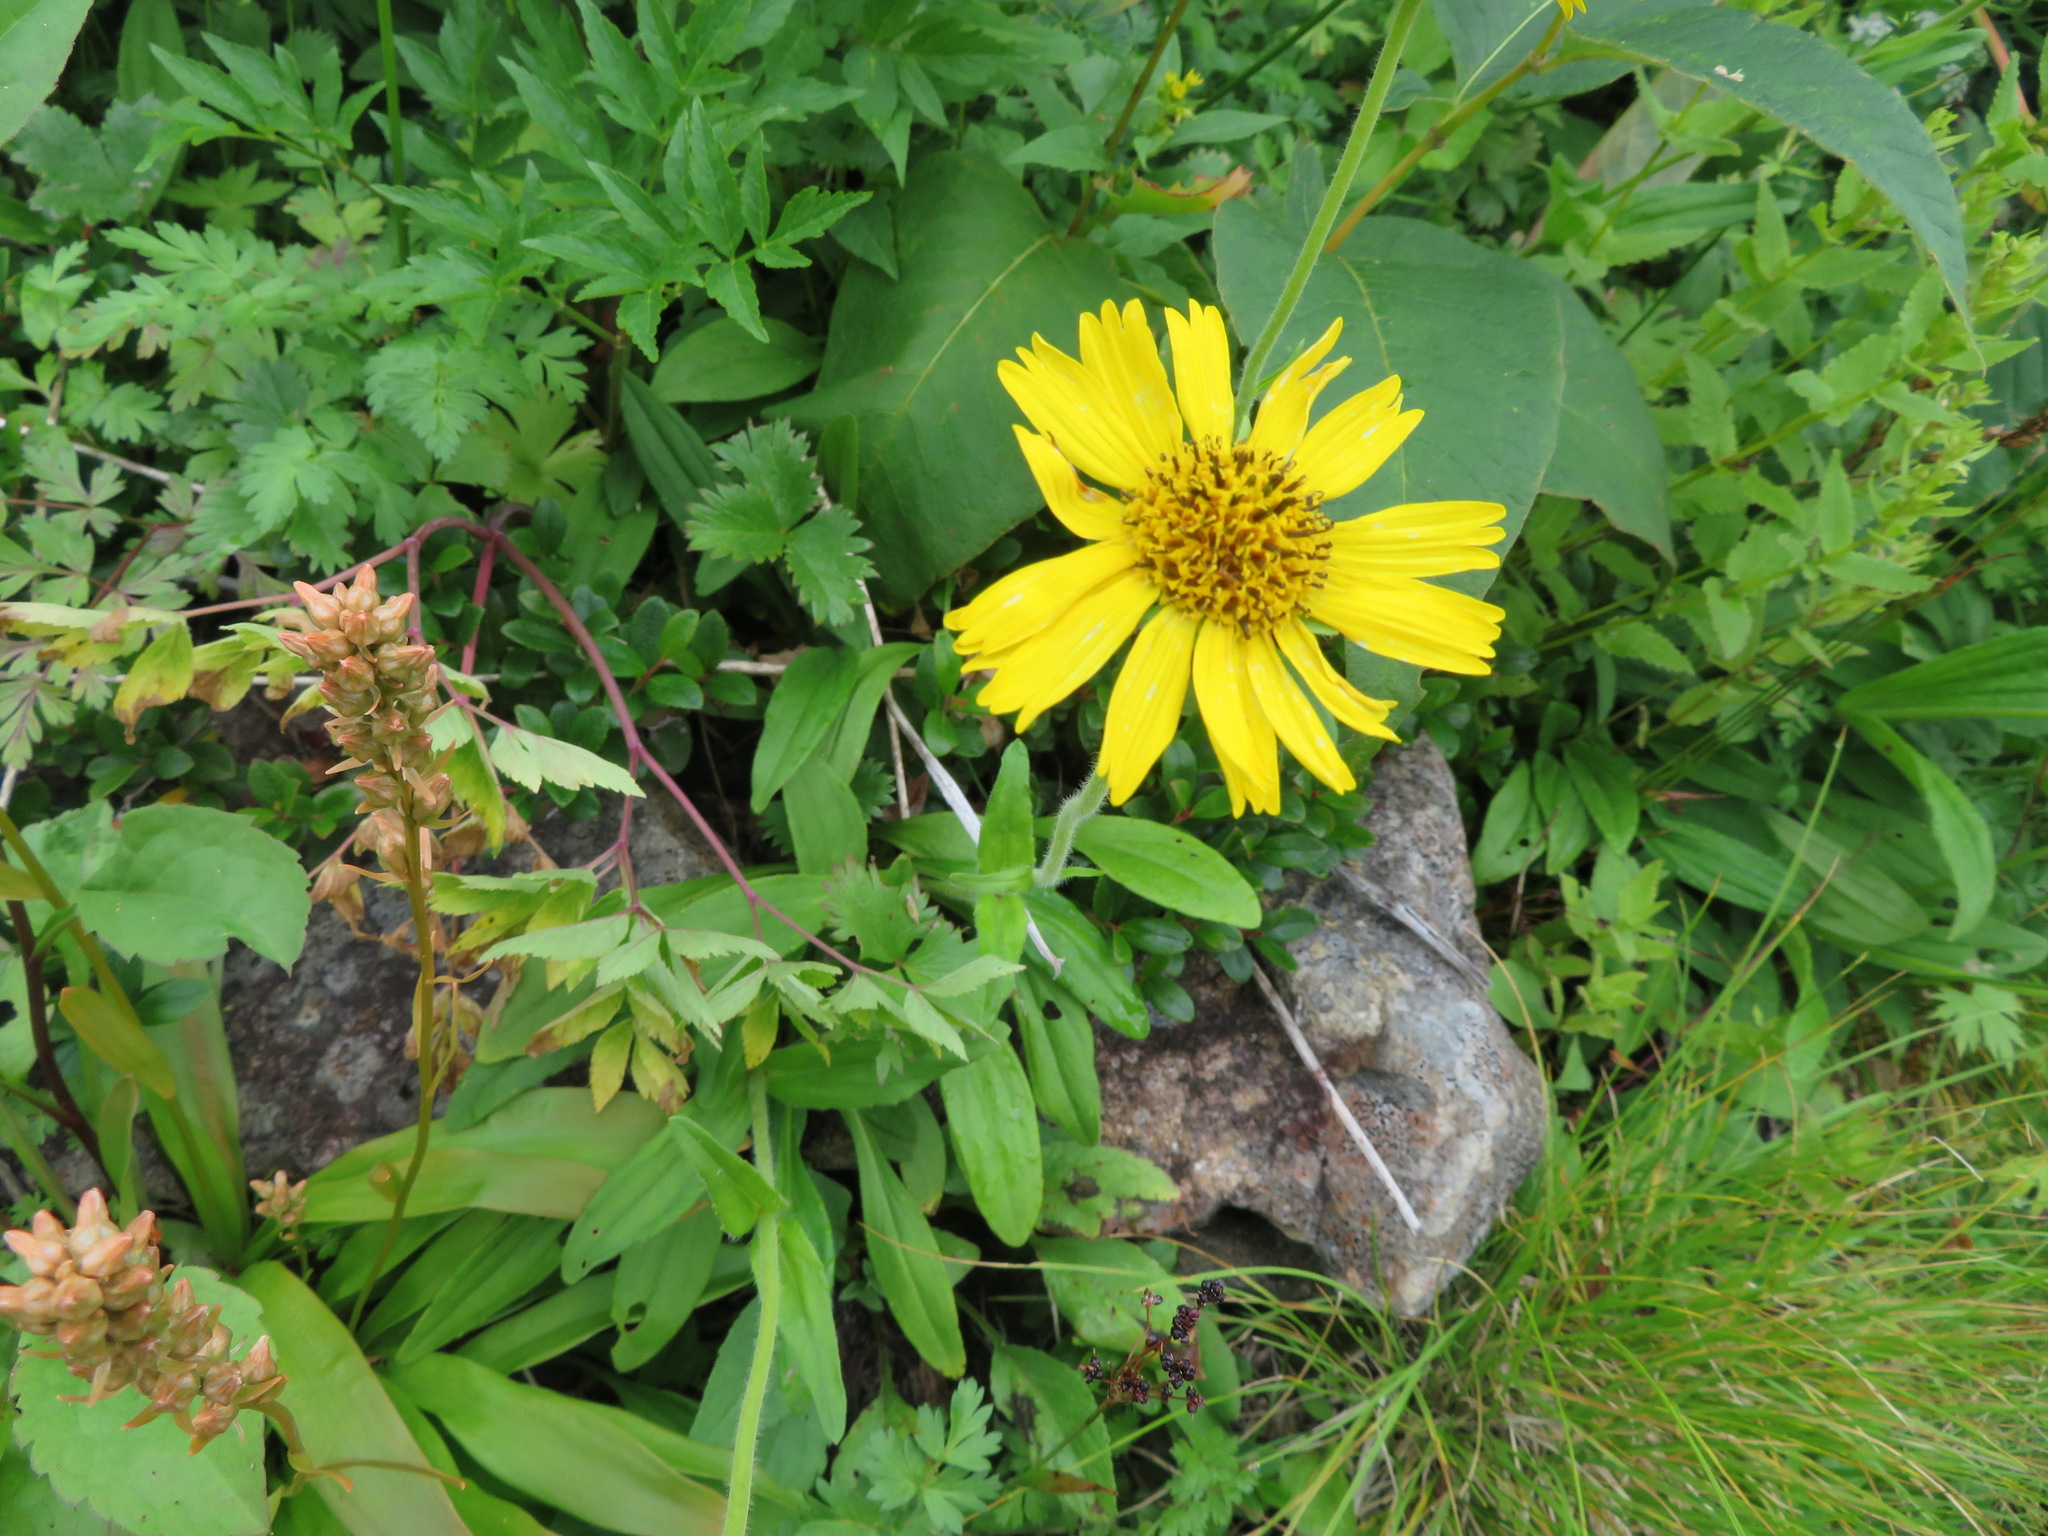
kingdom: Plantae
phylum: Tracheophyta
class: Magnoliopsida
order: Asterales
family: Asteraceae
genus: Arnica
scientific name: Arnica unalascensis
